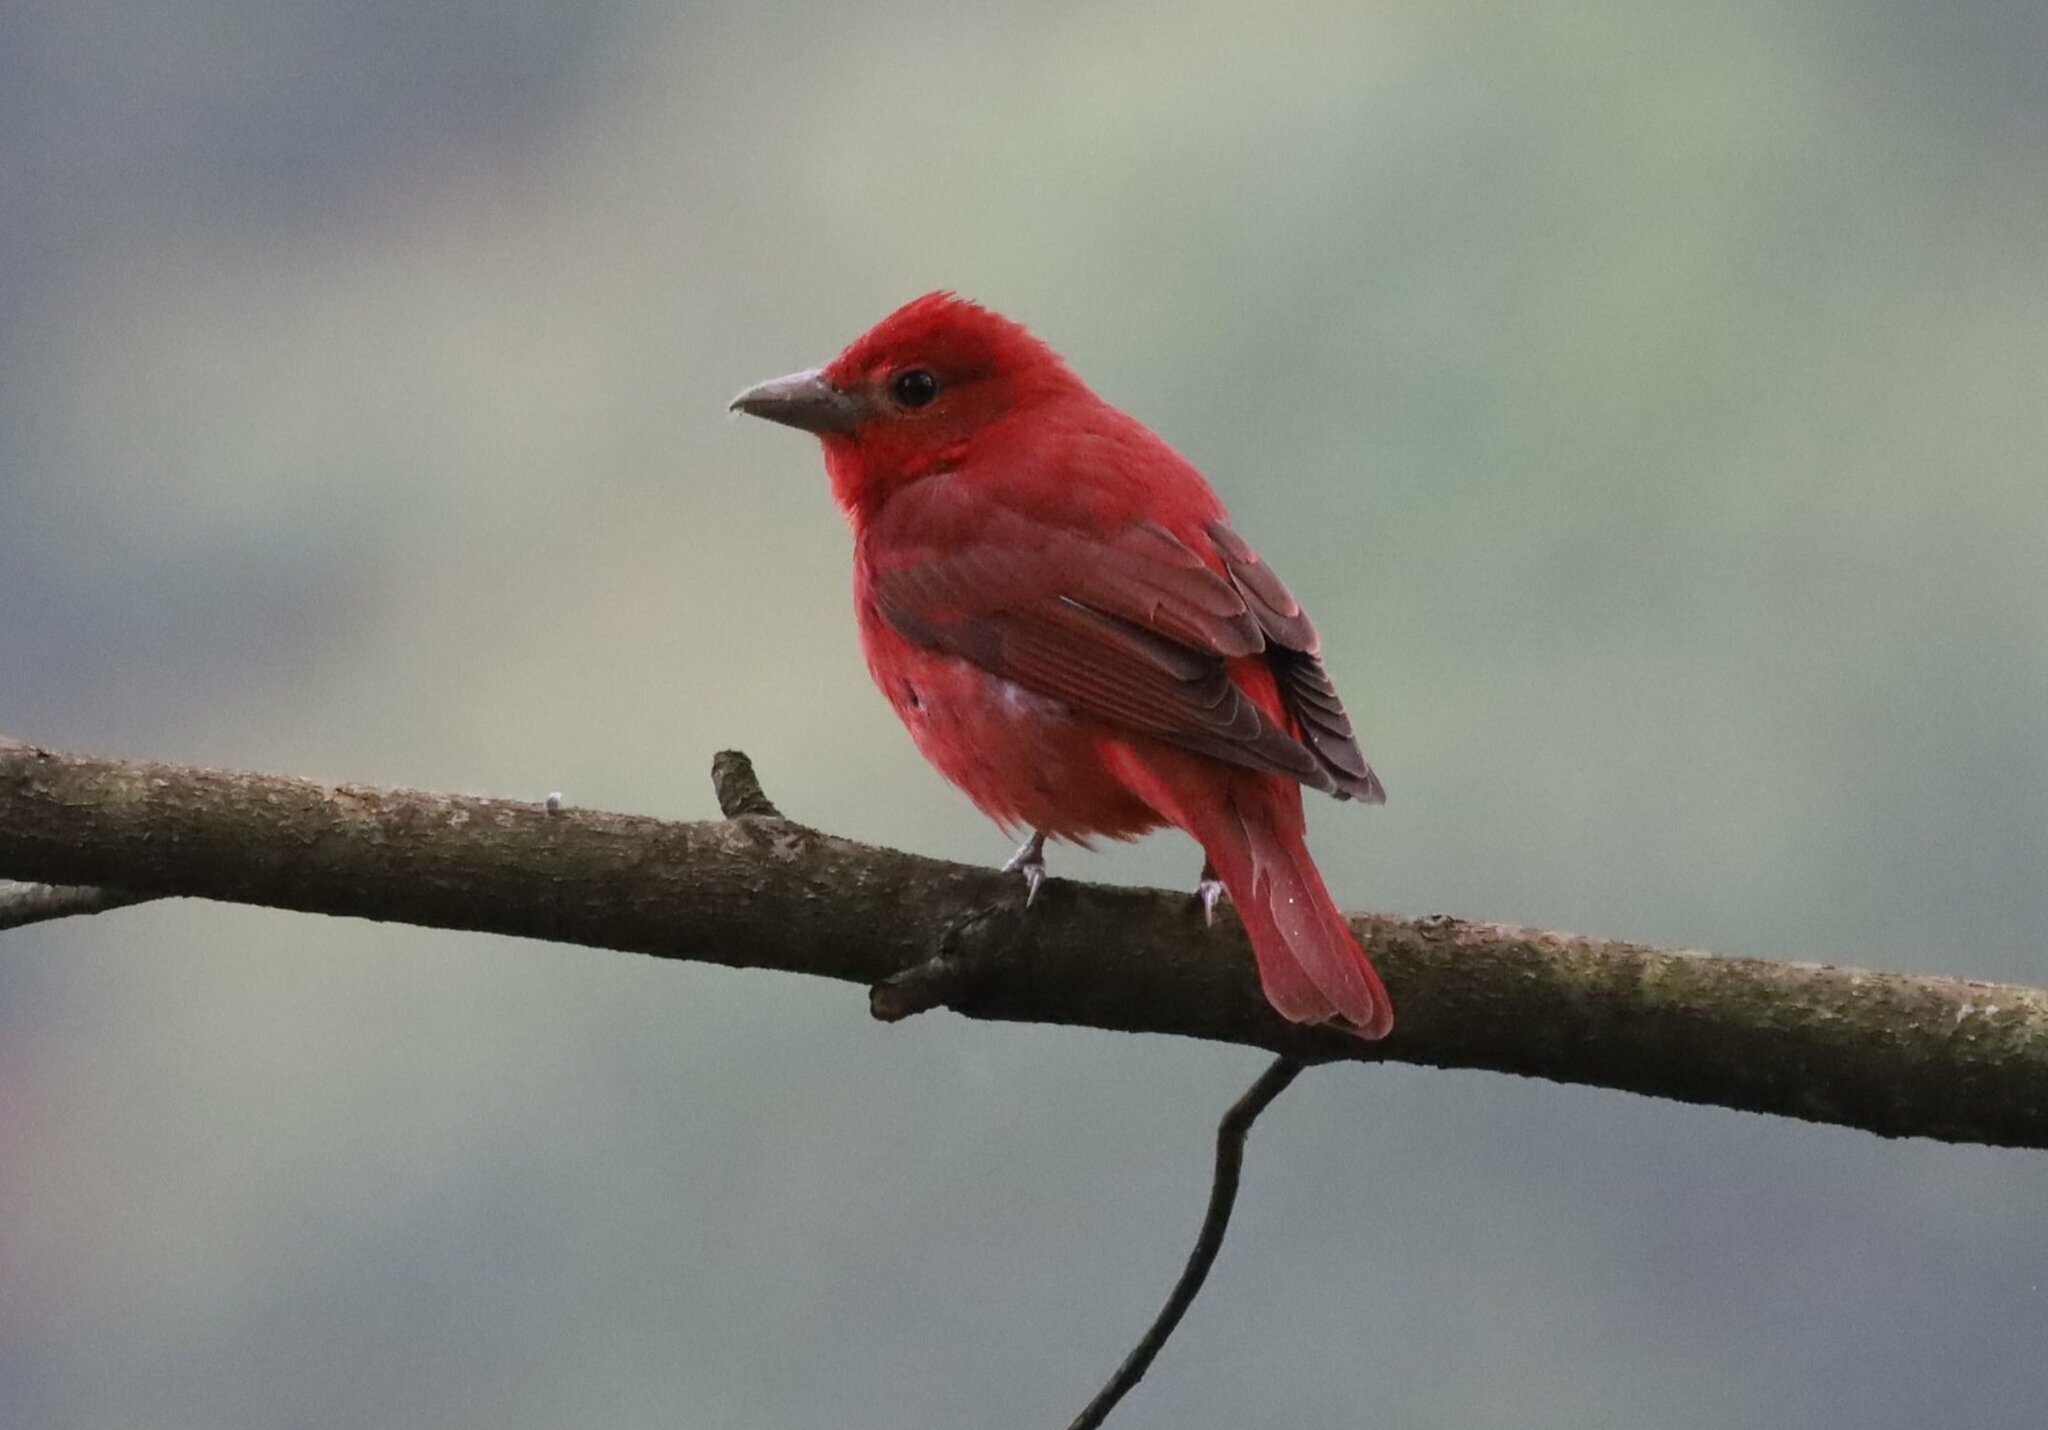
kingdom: Animalia
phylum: Chordata
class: Aves
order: Passeriformes
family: Cardinalidae
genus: Piranga
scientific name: Piranga rubra
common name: Summer tanager
